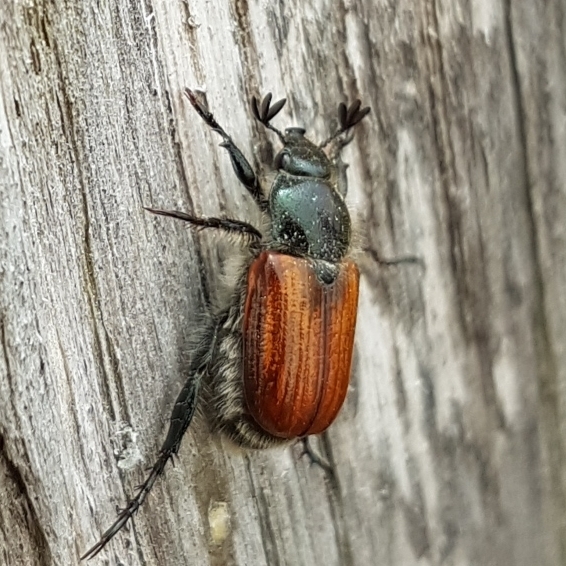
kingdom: Animalia
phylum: Arthropoda
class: Insecta
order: Coleoptera
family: Scarabaeidae
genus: Anisoplia
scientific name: Anisoplia remota
